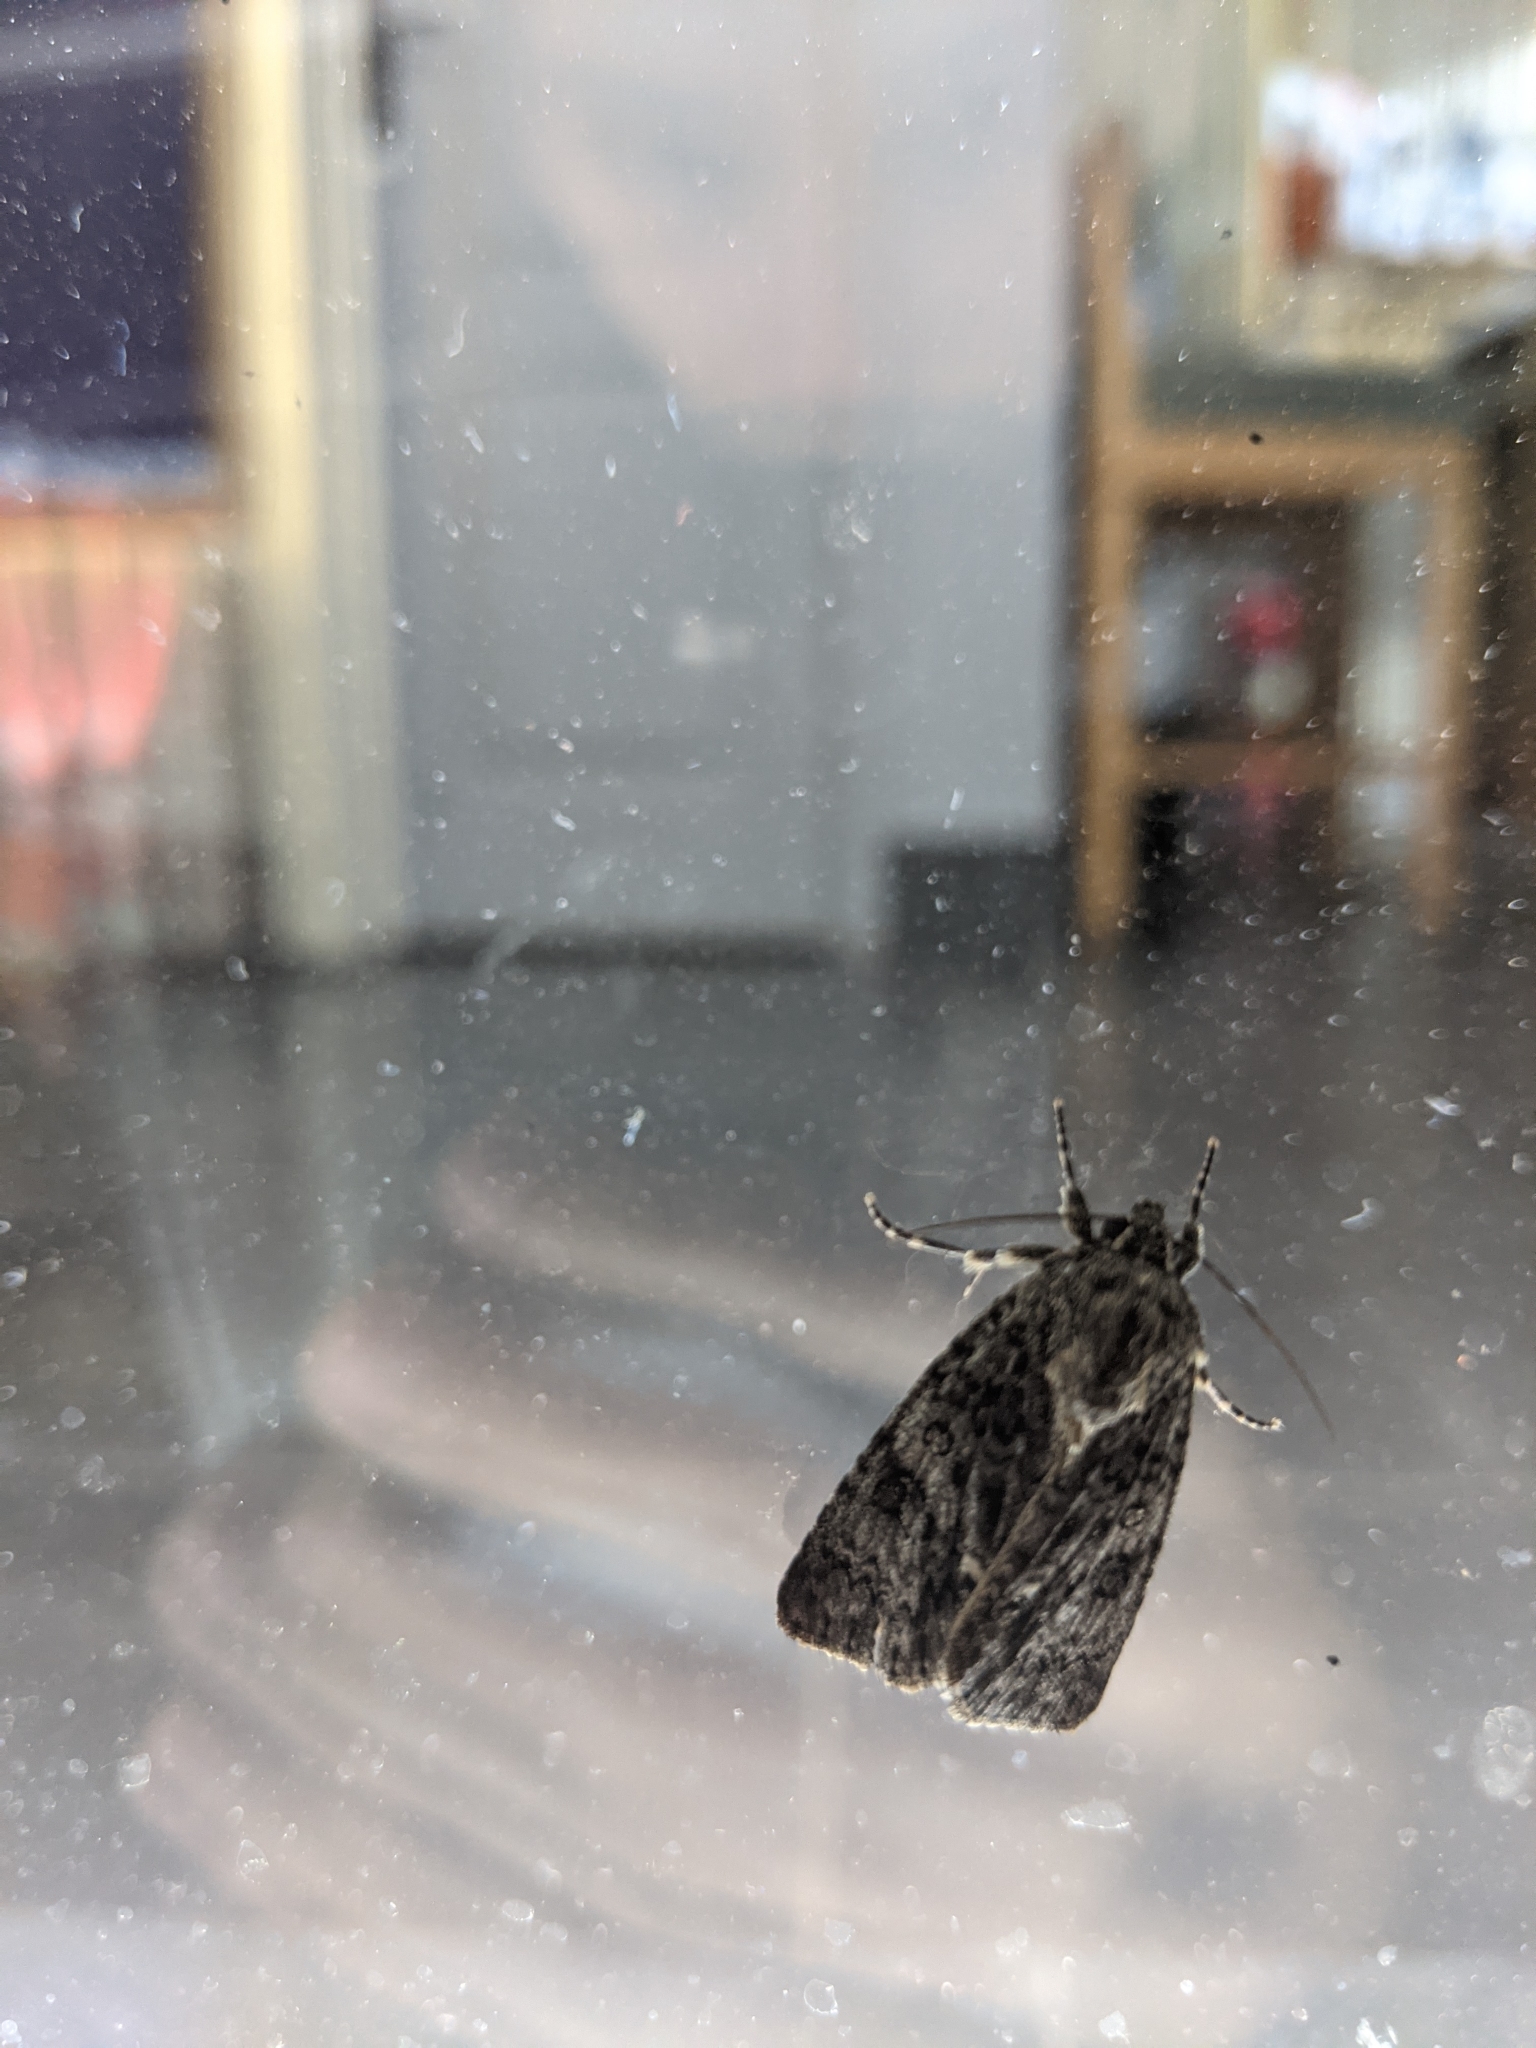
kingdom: Animalia
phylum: Arthropoda
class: Insecta
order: Lepidoptera
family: Noctuidae
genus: Acronicta
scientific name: Acronicta rumicis
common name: Knot grass
